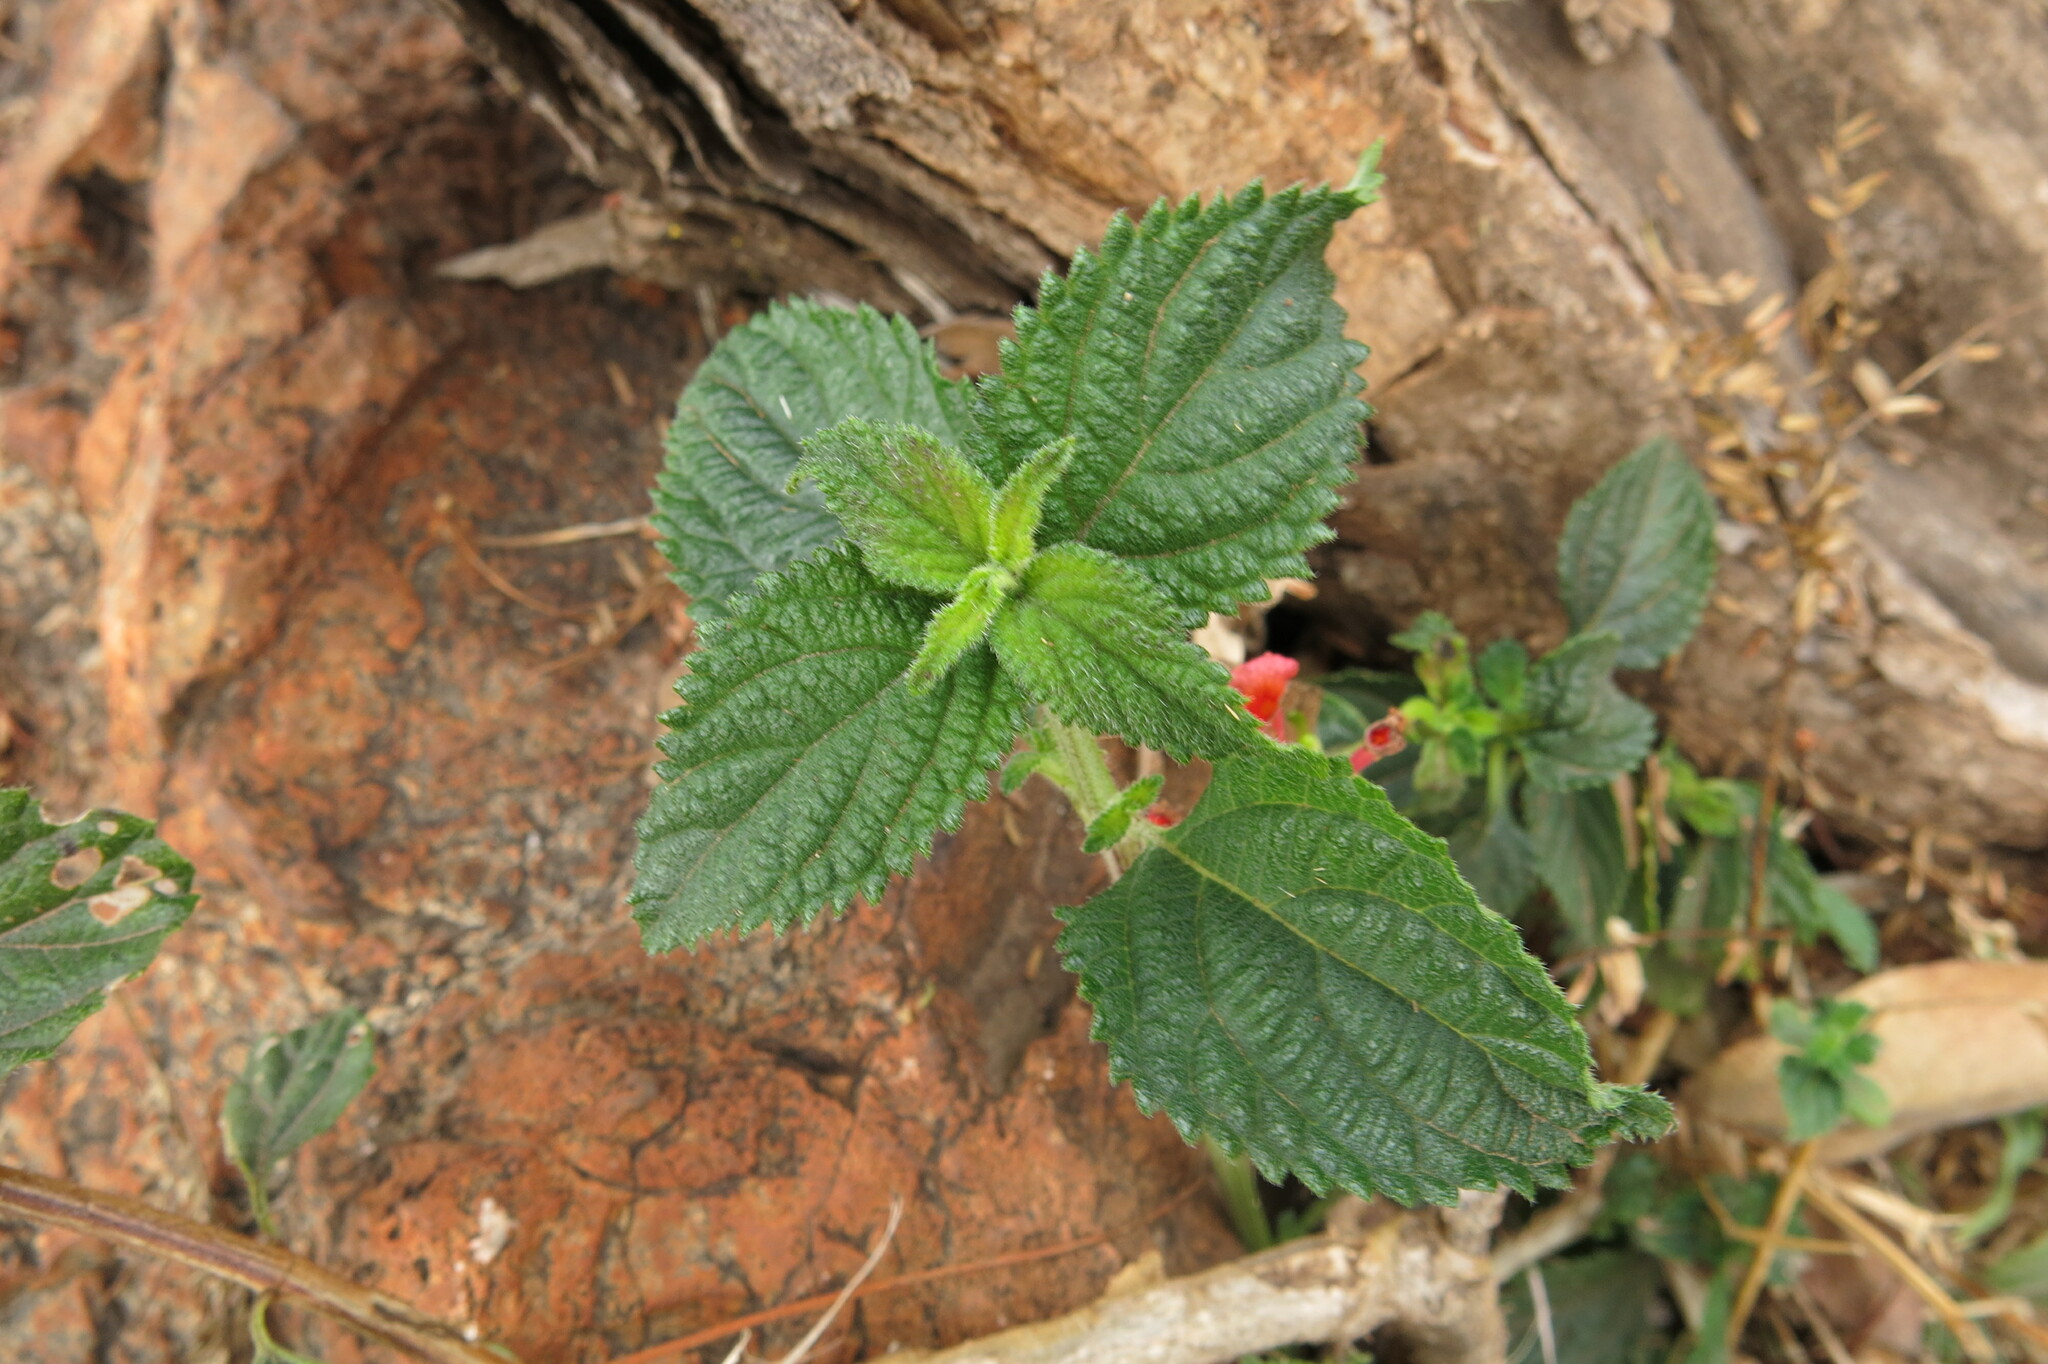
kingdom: Plantae
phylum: Tracheophyta
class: Magnoliopsida
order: Lamiales
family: Verbenaceae
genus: Lantana
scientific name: Lantana camara
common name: Lantana
